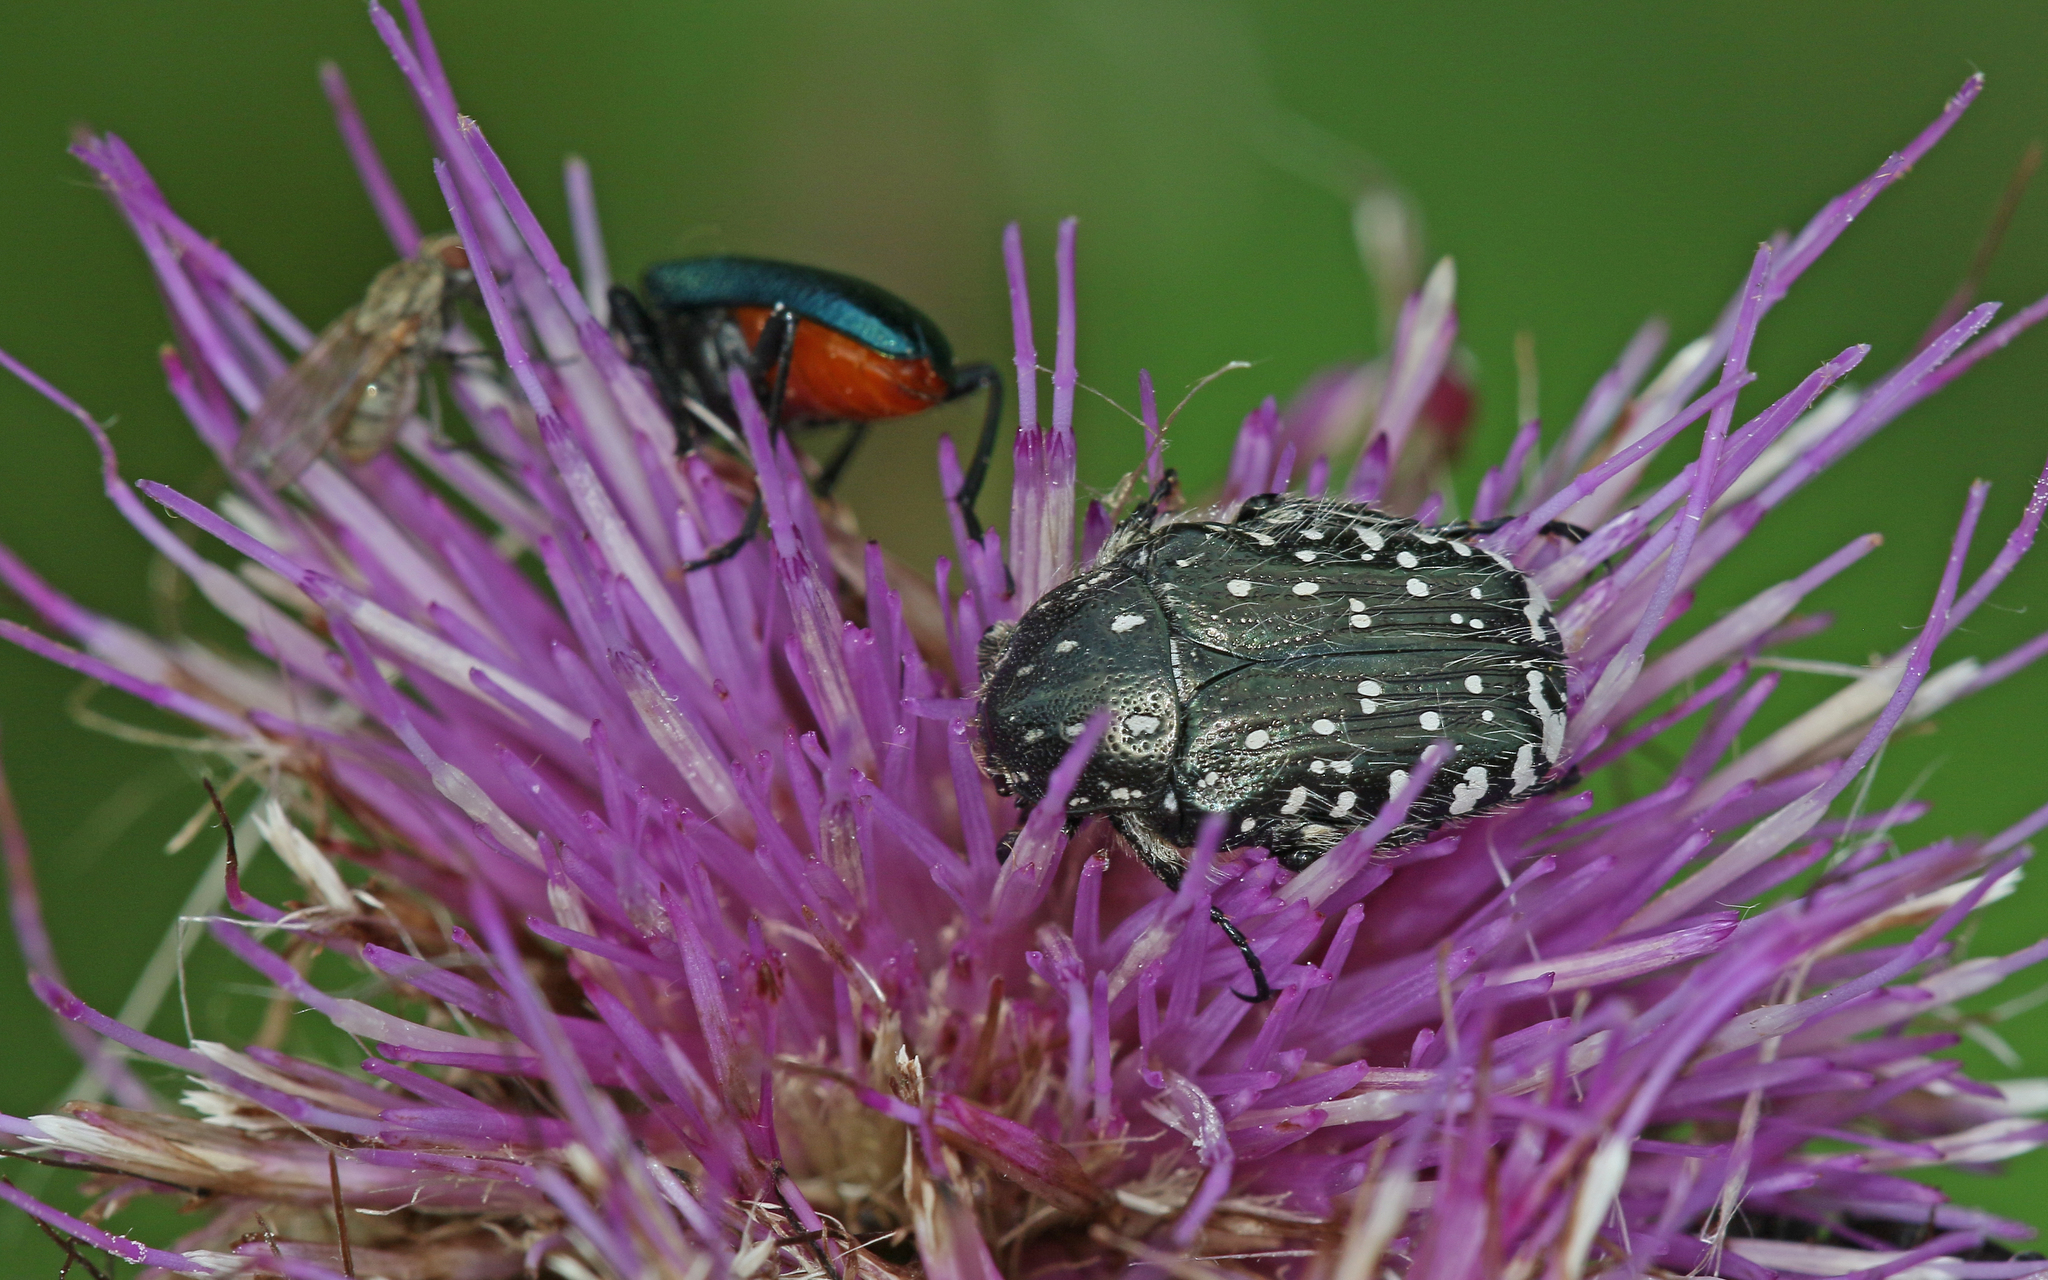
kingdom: Animalia
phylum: Arthropoda
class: Insecta
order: Coleoptera
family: Scarabaeidae
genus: Oxythyrea
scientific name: Oxythyrea funesta
